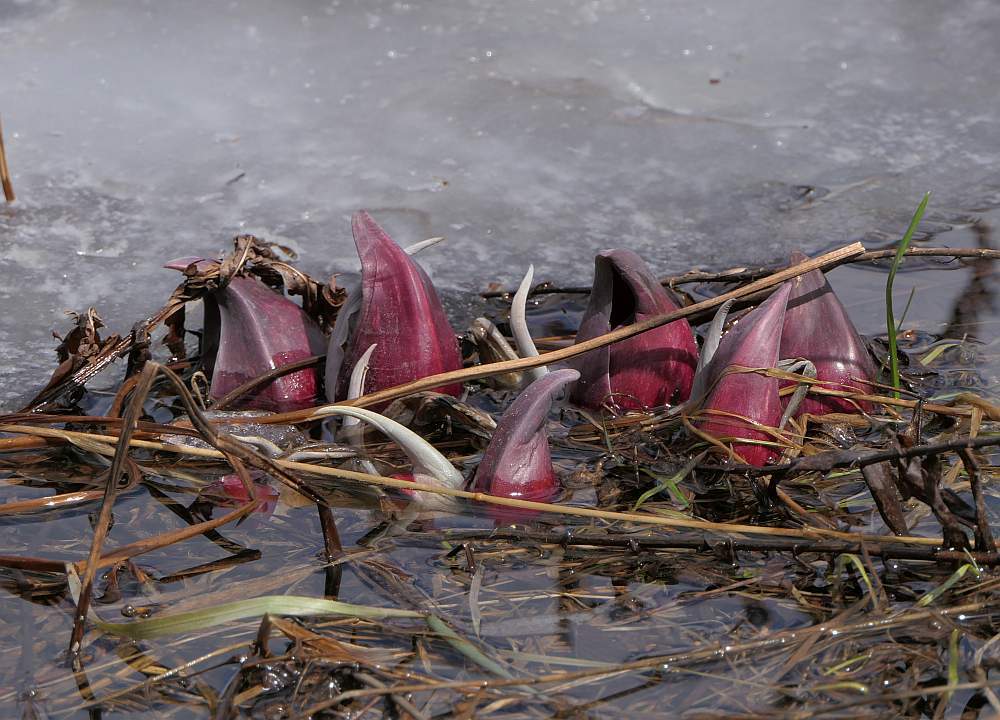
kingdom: Plantae
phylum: Tracheophyta
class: Liliopsida
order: Alismatales
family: Araceae
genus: Symplocarpus
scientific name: Symplocarpus foetidus
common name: Eastern skunk cabbage
